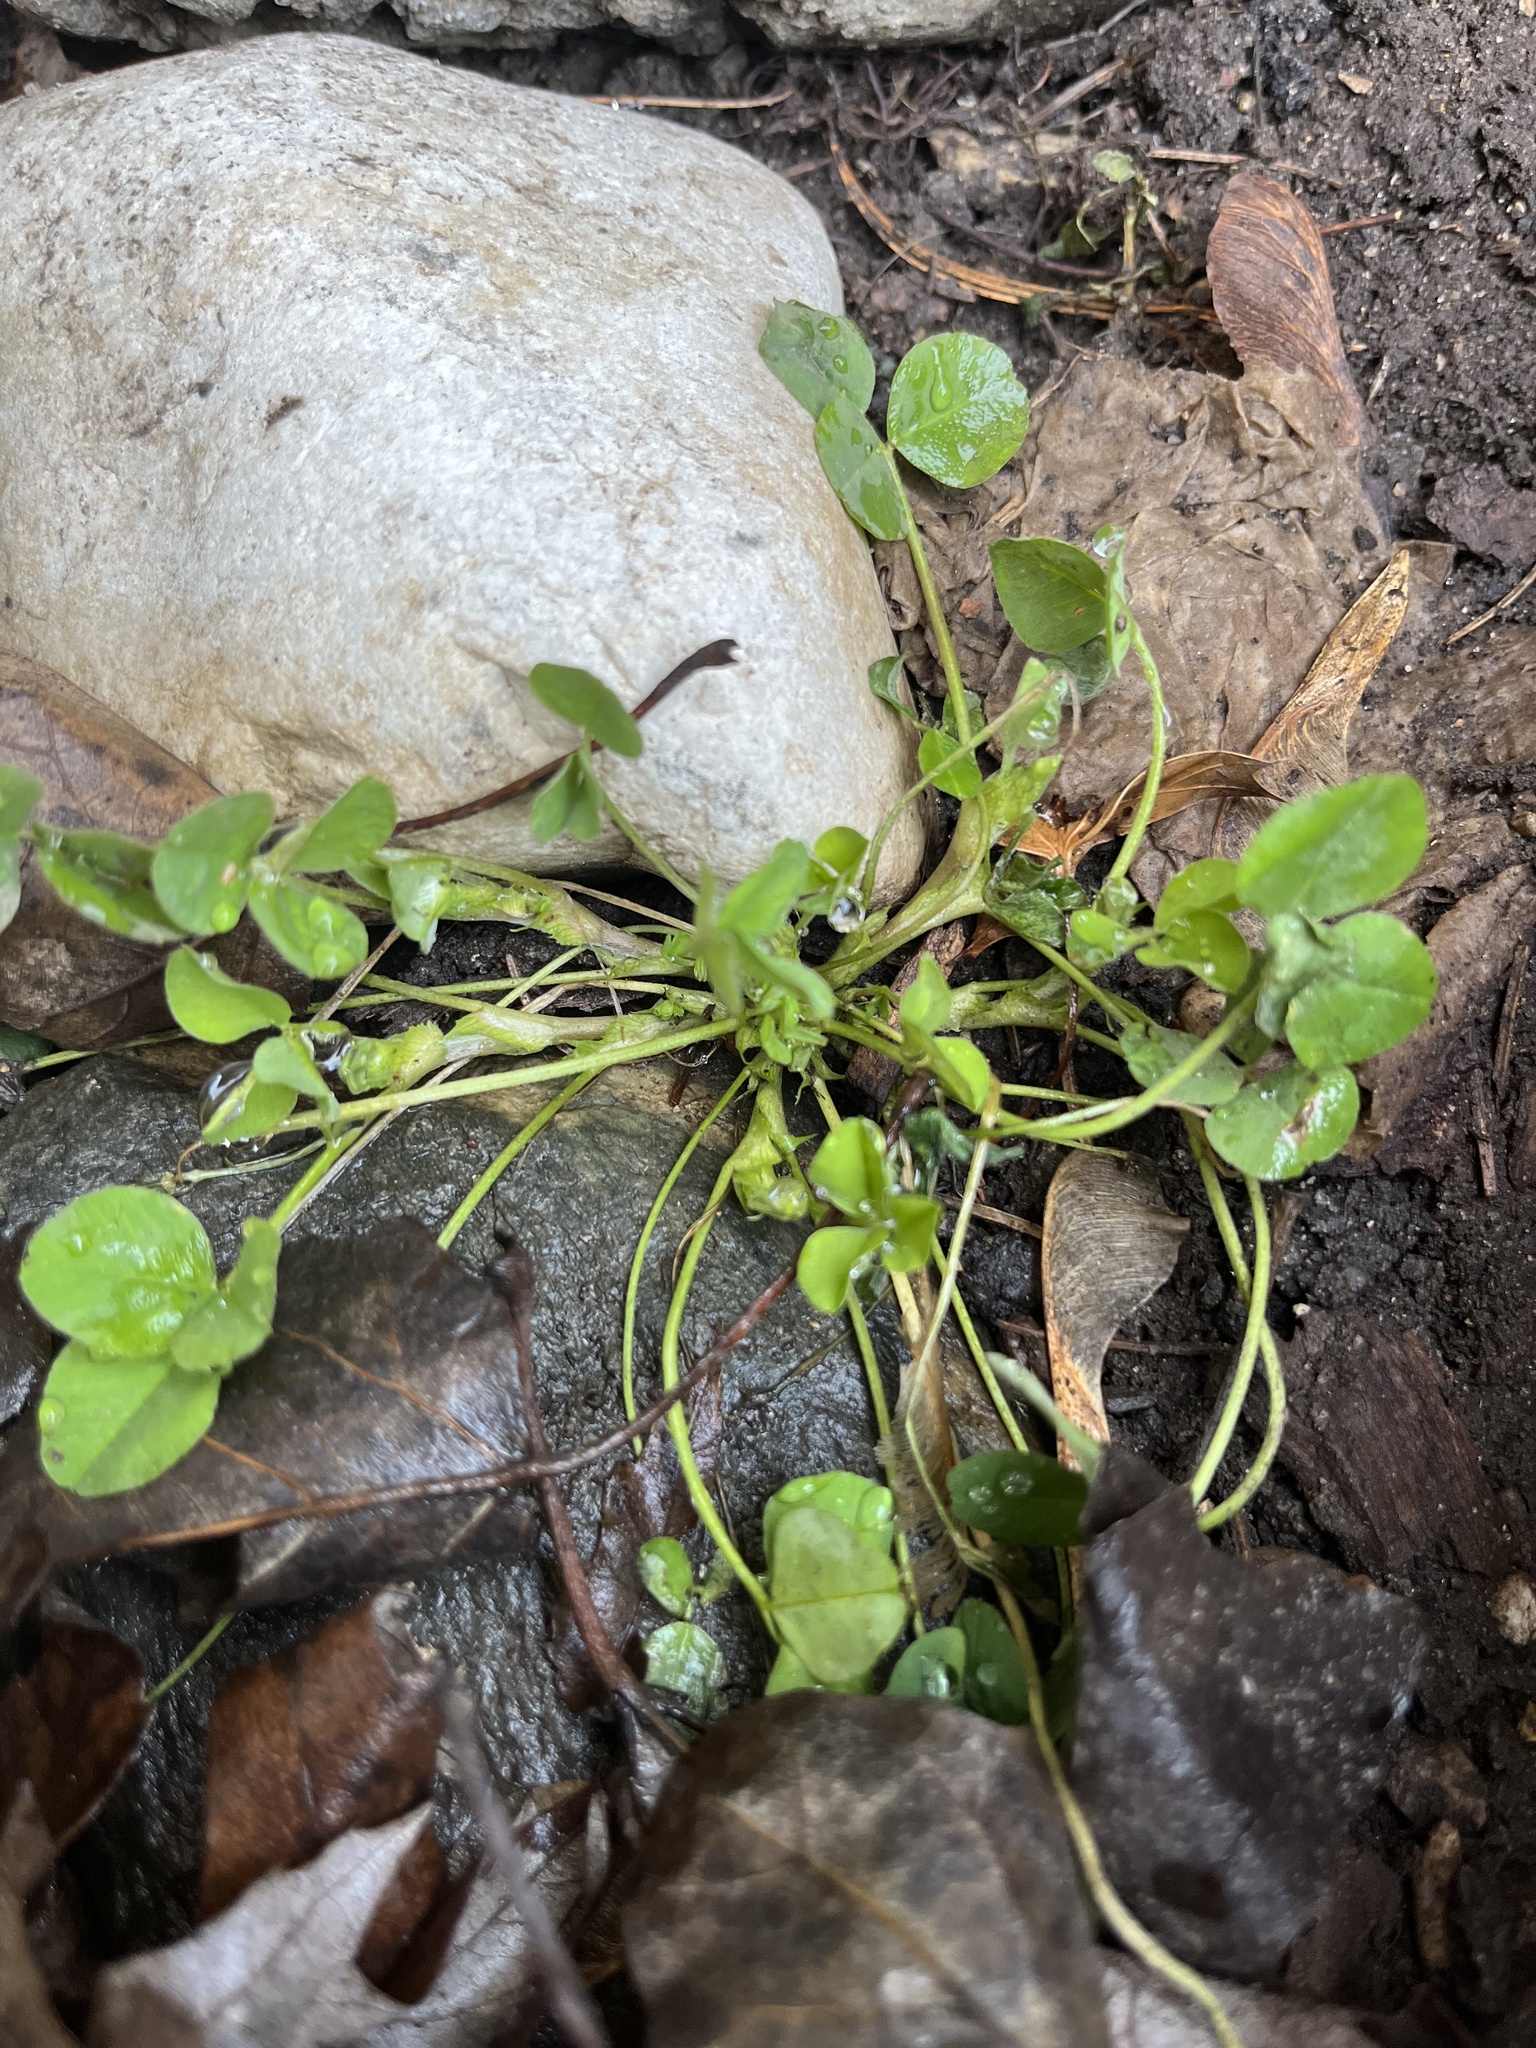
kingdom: Plantae
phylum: Tracheophyta
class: Magnoliopsida
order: Fabales
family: Fabaceae
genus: Trifolium
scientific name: Trifolium repens
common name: White clover
